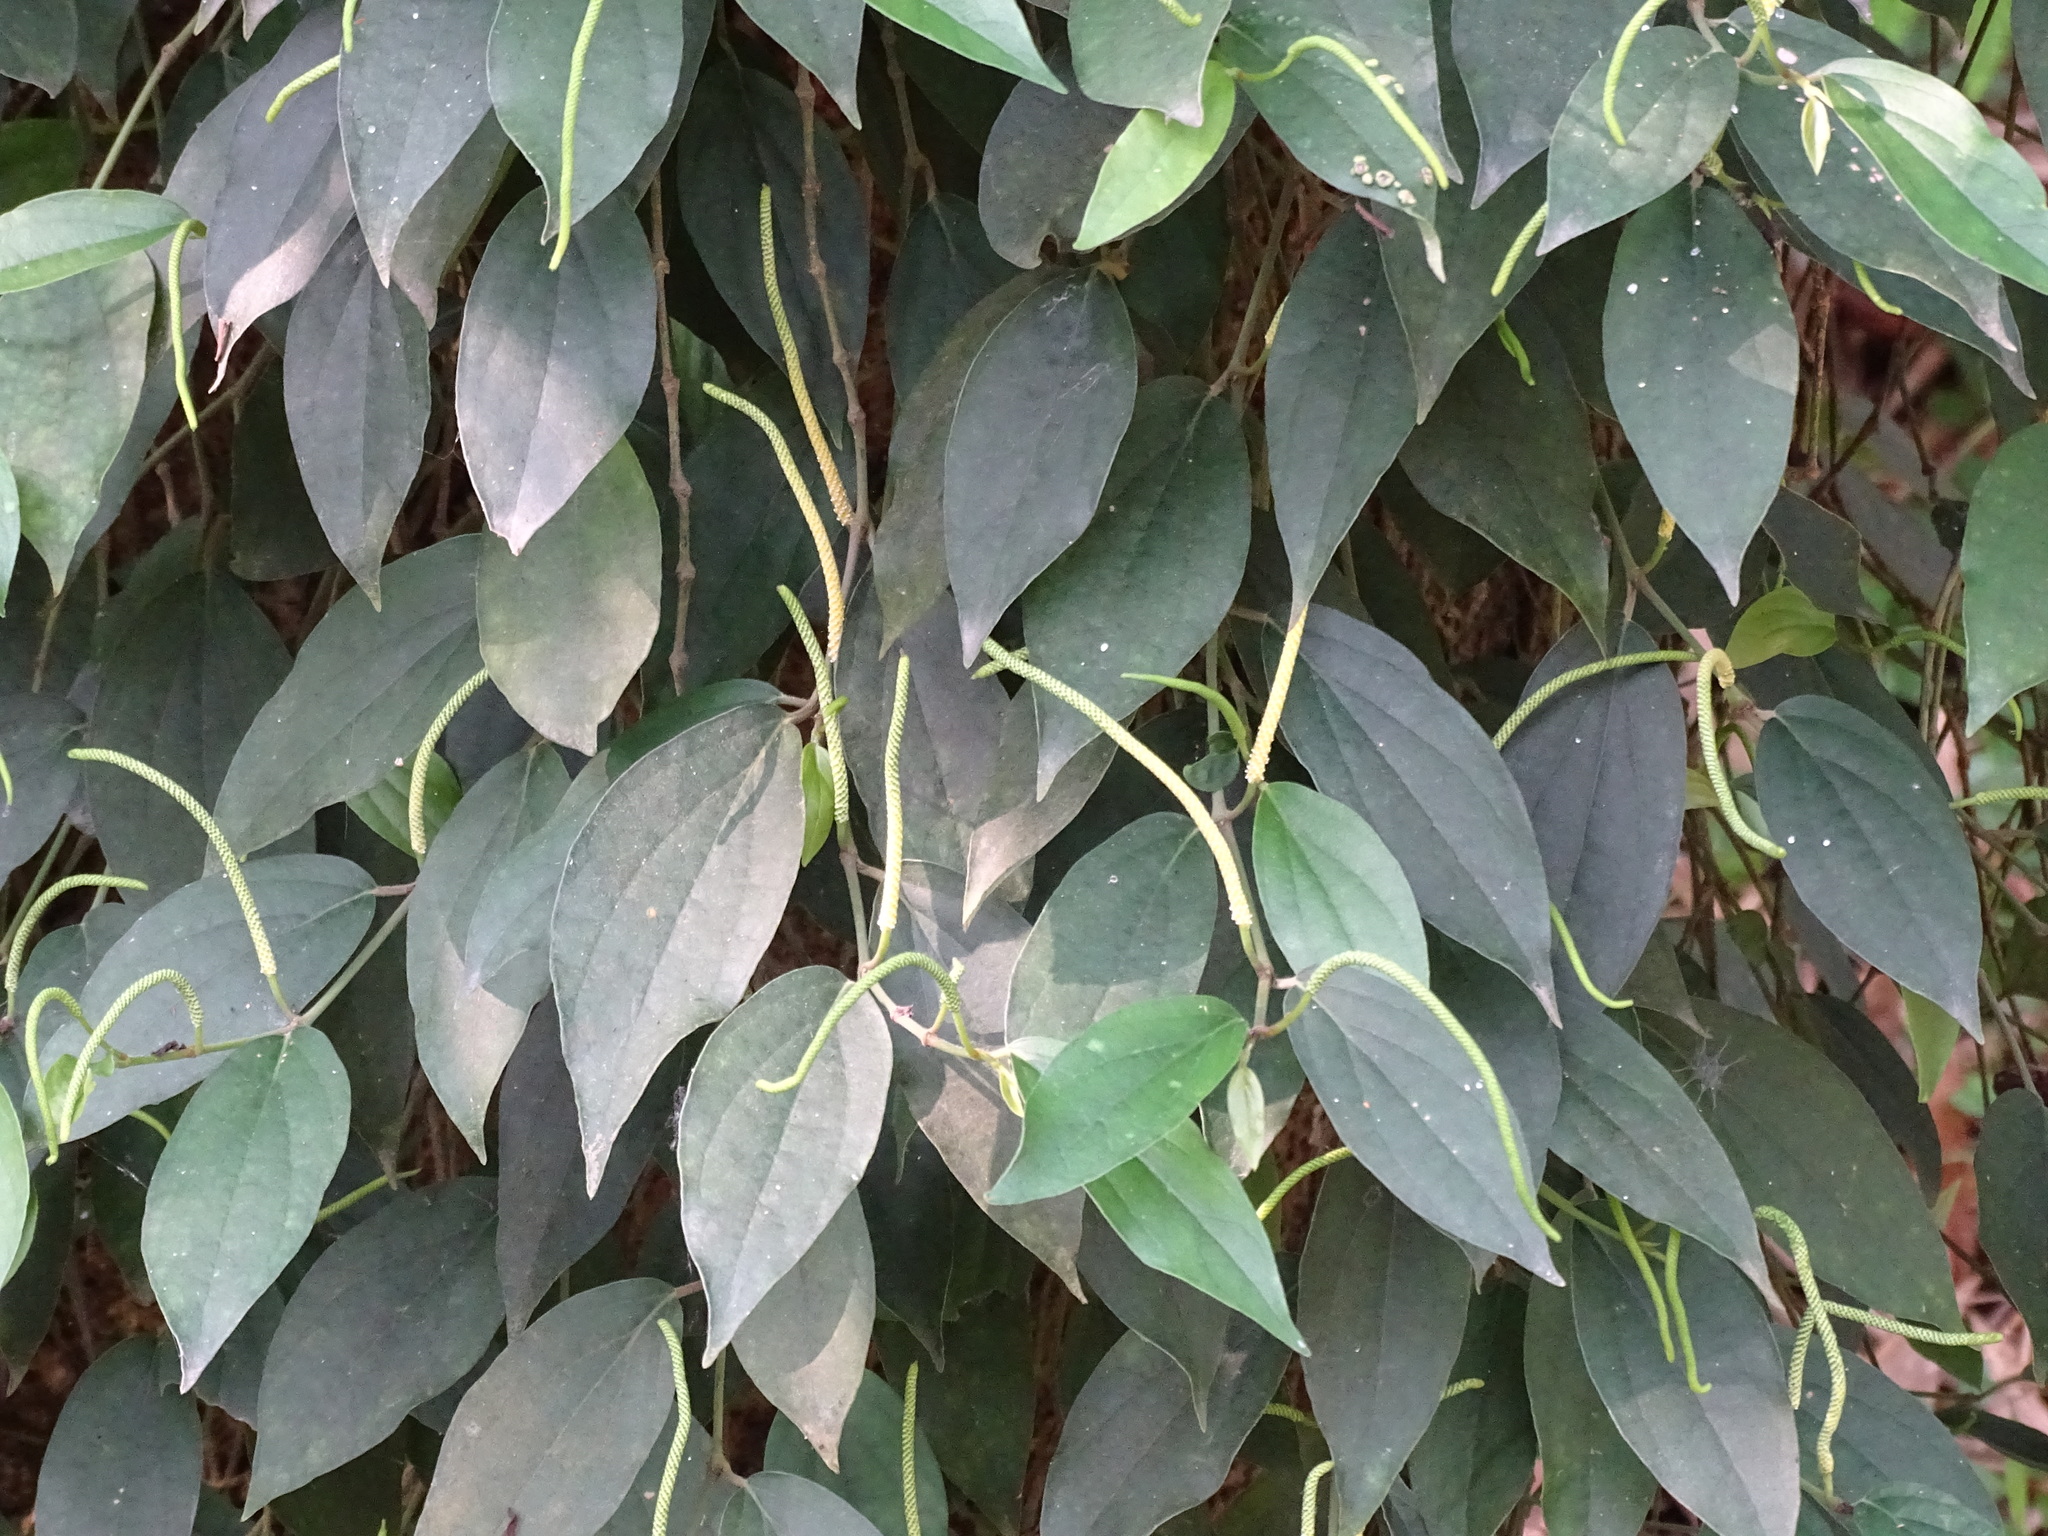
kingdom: Plantae
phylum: Tracheophyta
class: Magnoliopsida
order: Piperales
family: Piperaceae
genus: Piper
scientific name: Piper kadsura
